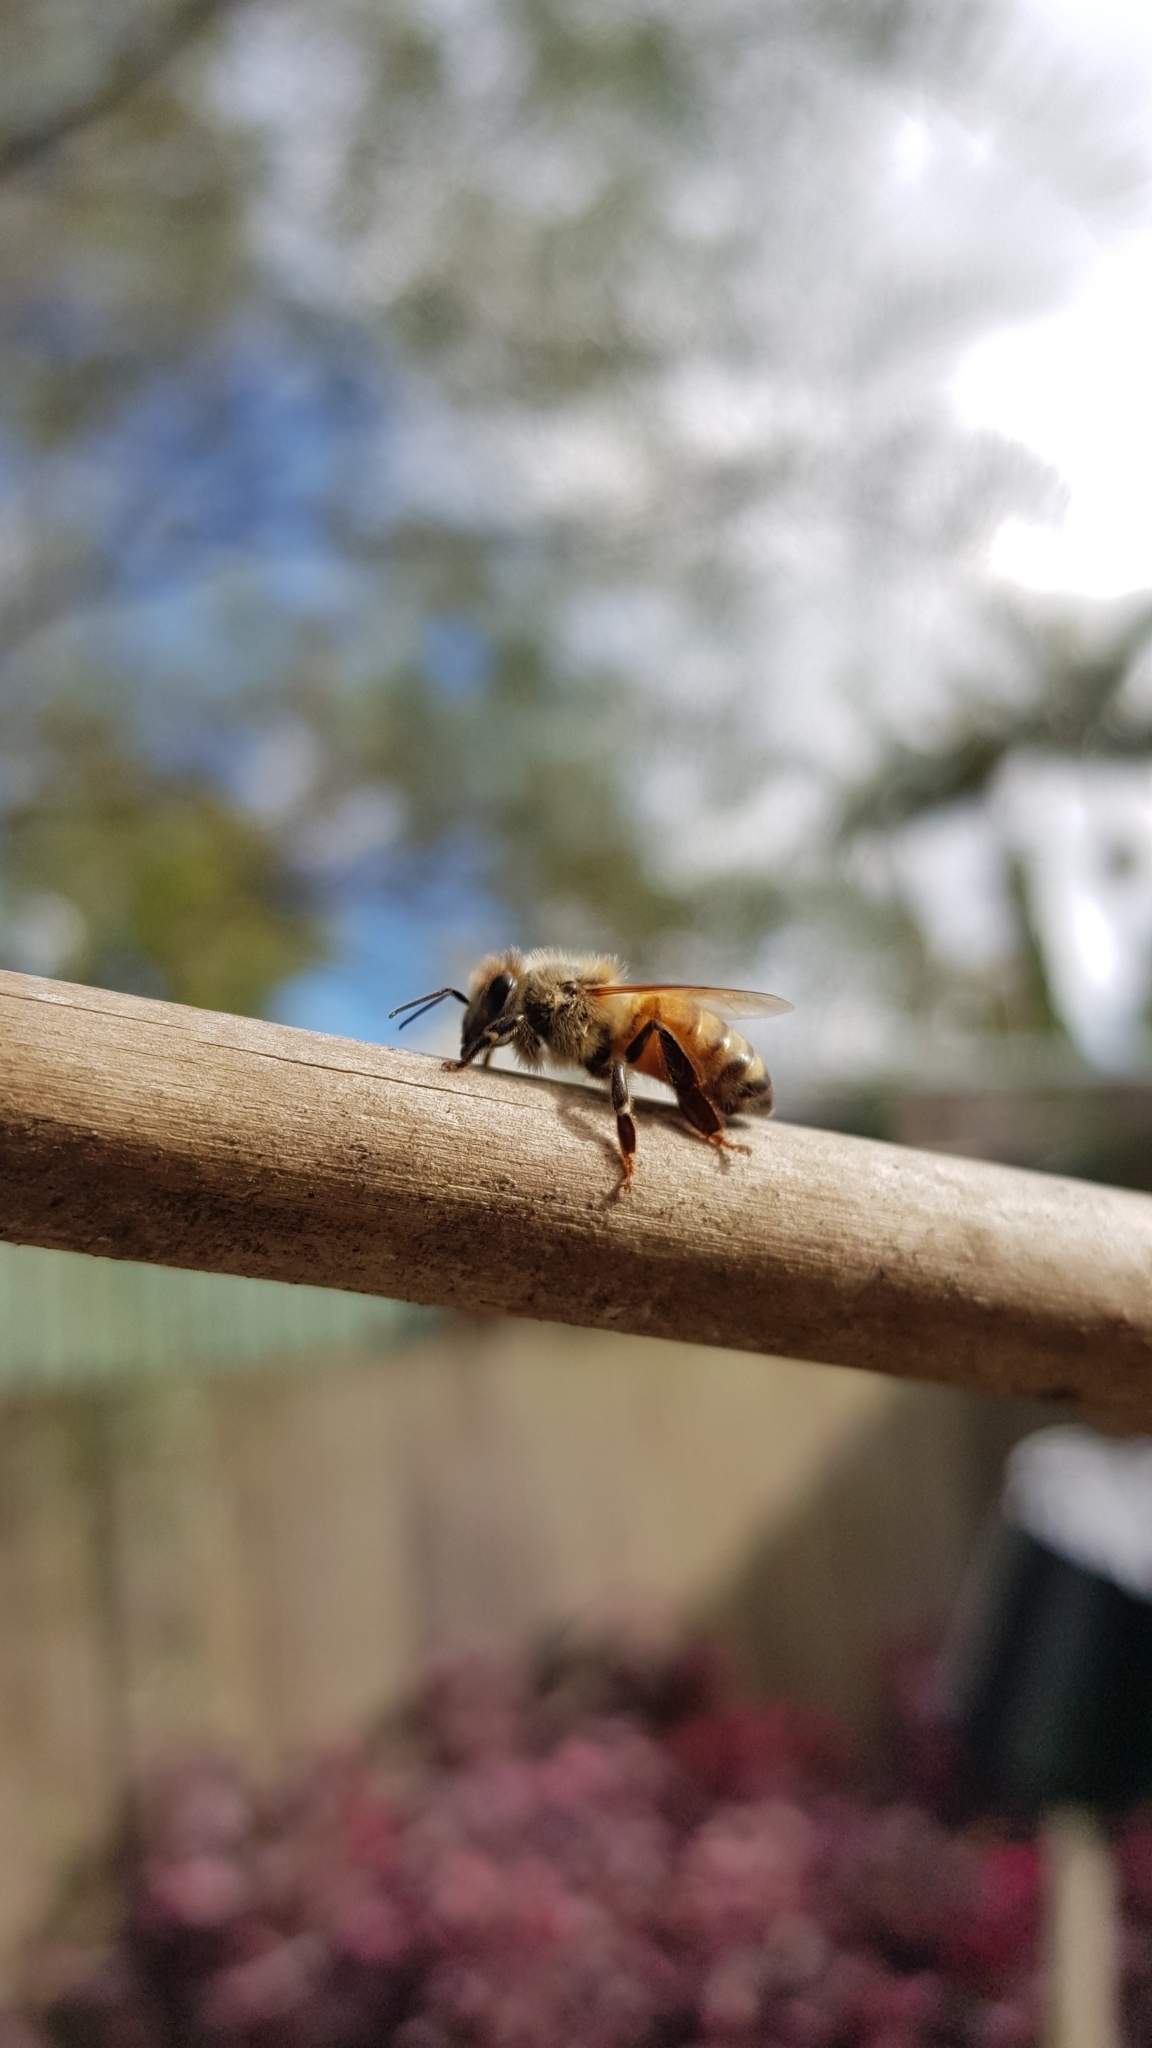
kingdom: Animalia
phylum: Arthropoda
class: Insecta
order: Hymenoptera
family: Apidae
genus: Apis
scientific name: Apis mellifera
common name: Honey bee
